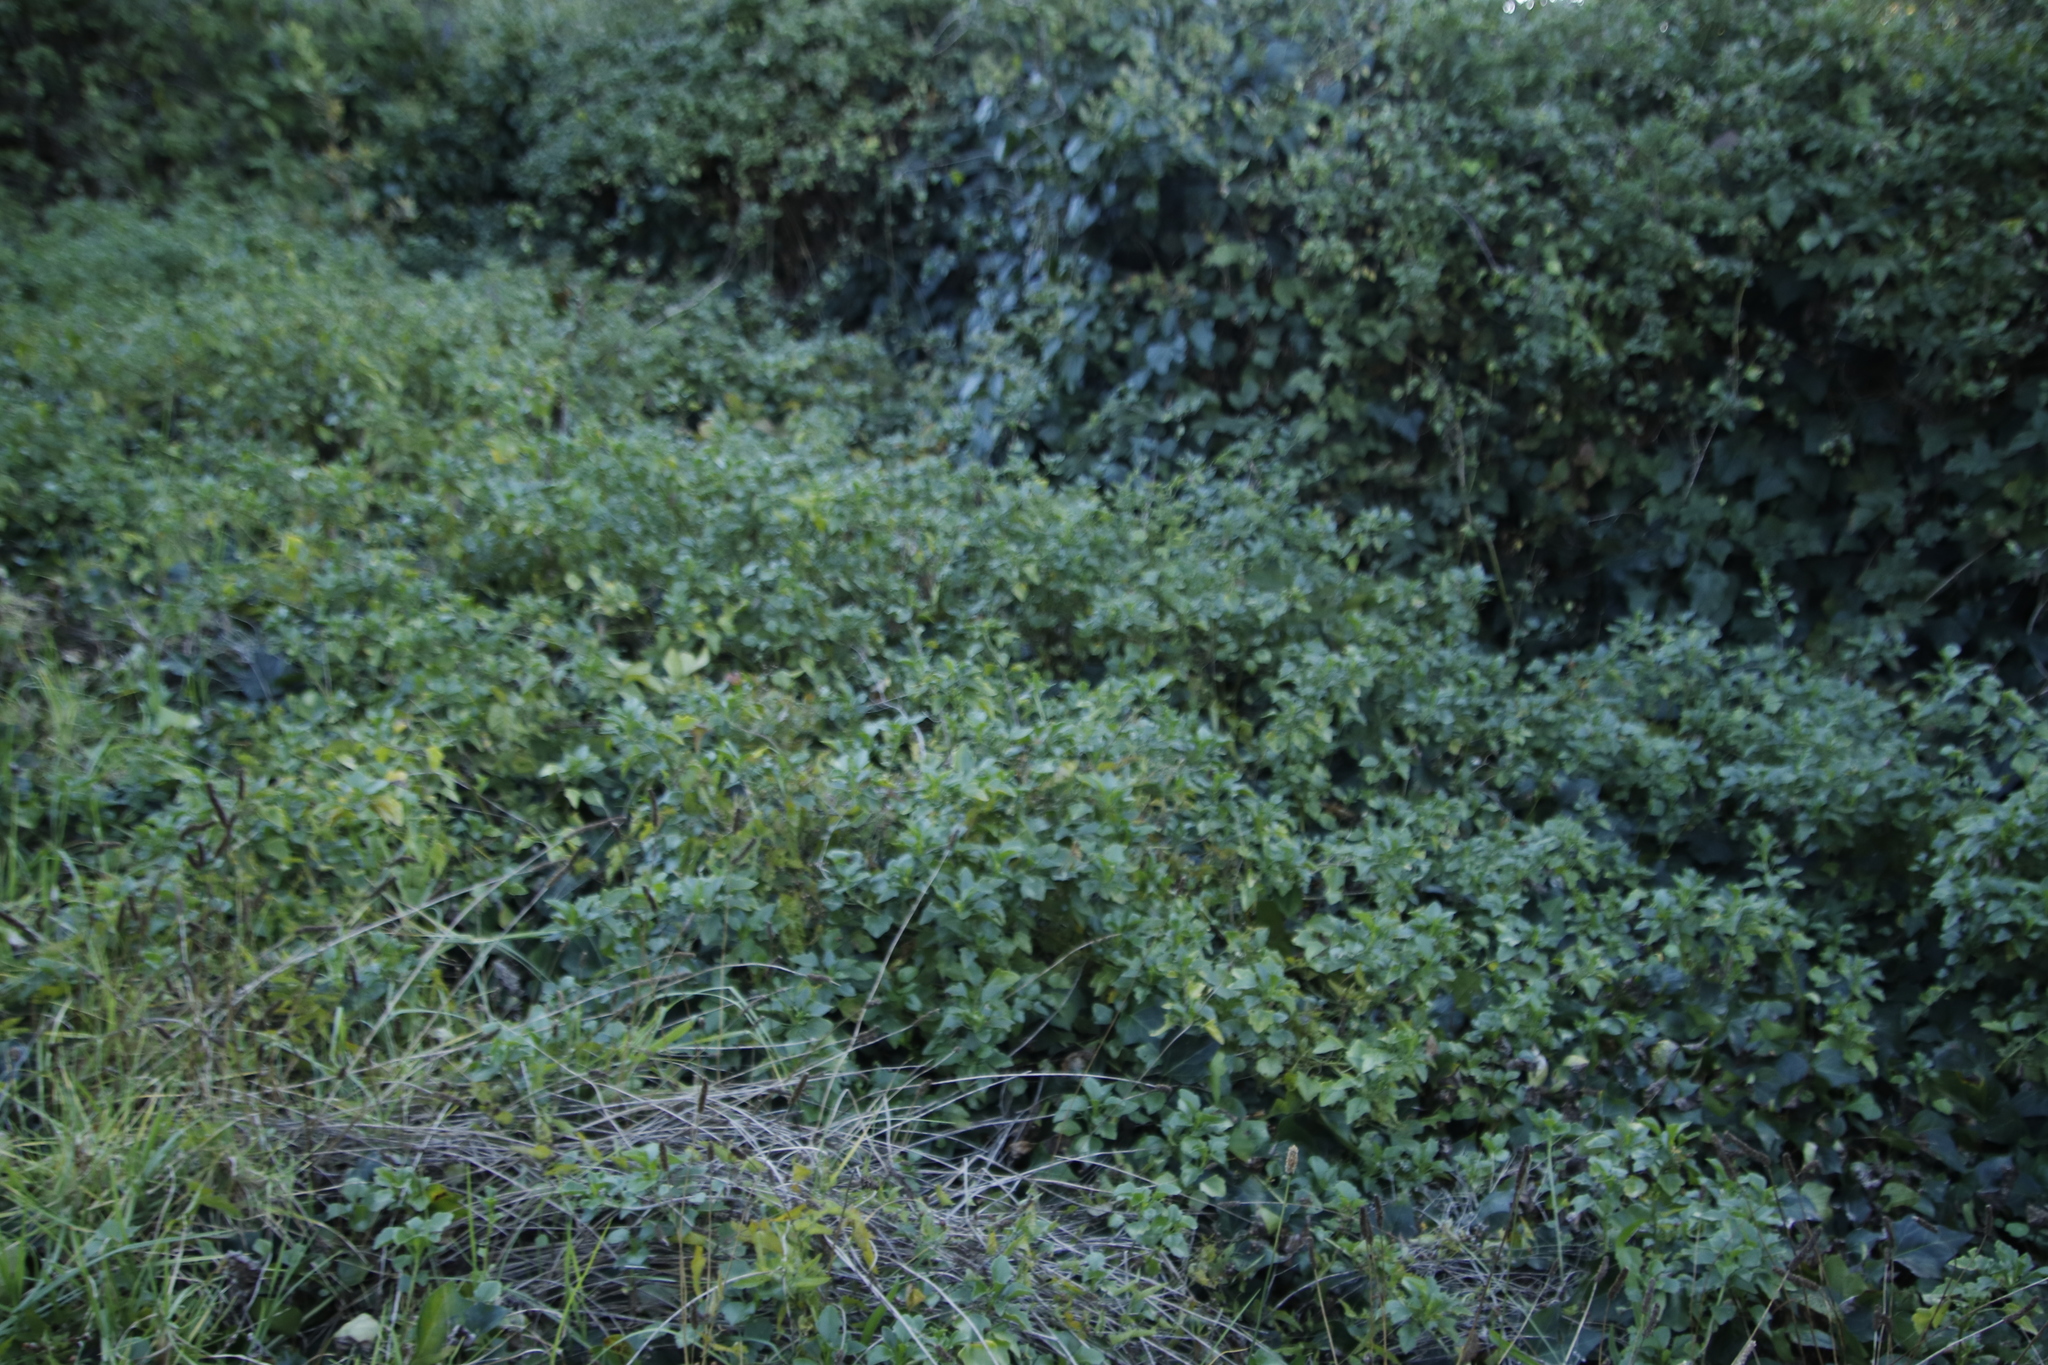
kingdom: Plantae
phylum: Tracheophyta
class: Magnoliopsida
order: Asterales
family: Asteraceae
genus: Senecio
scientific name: Senecio angulatus
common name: Climbing groundsel
